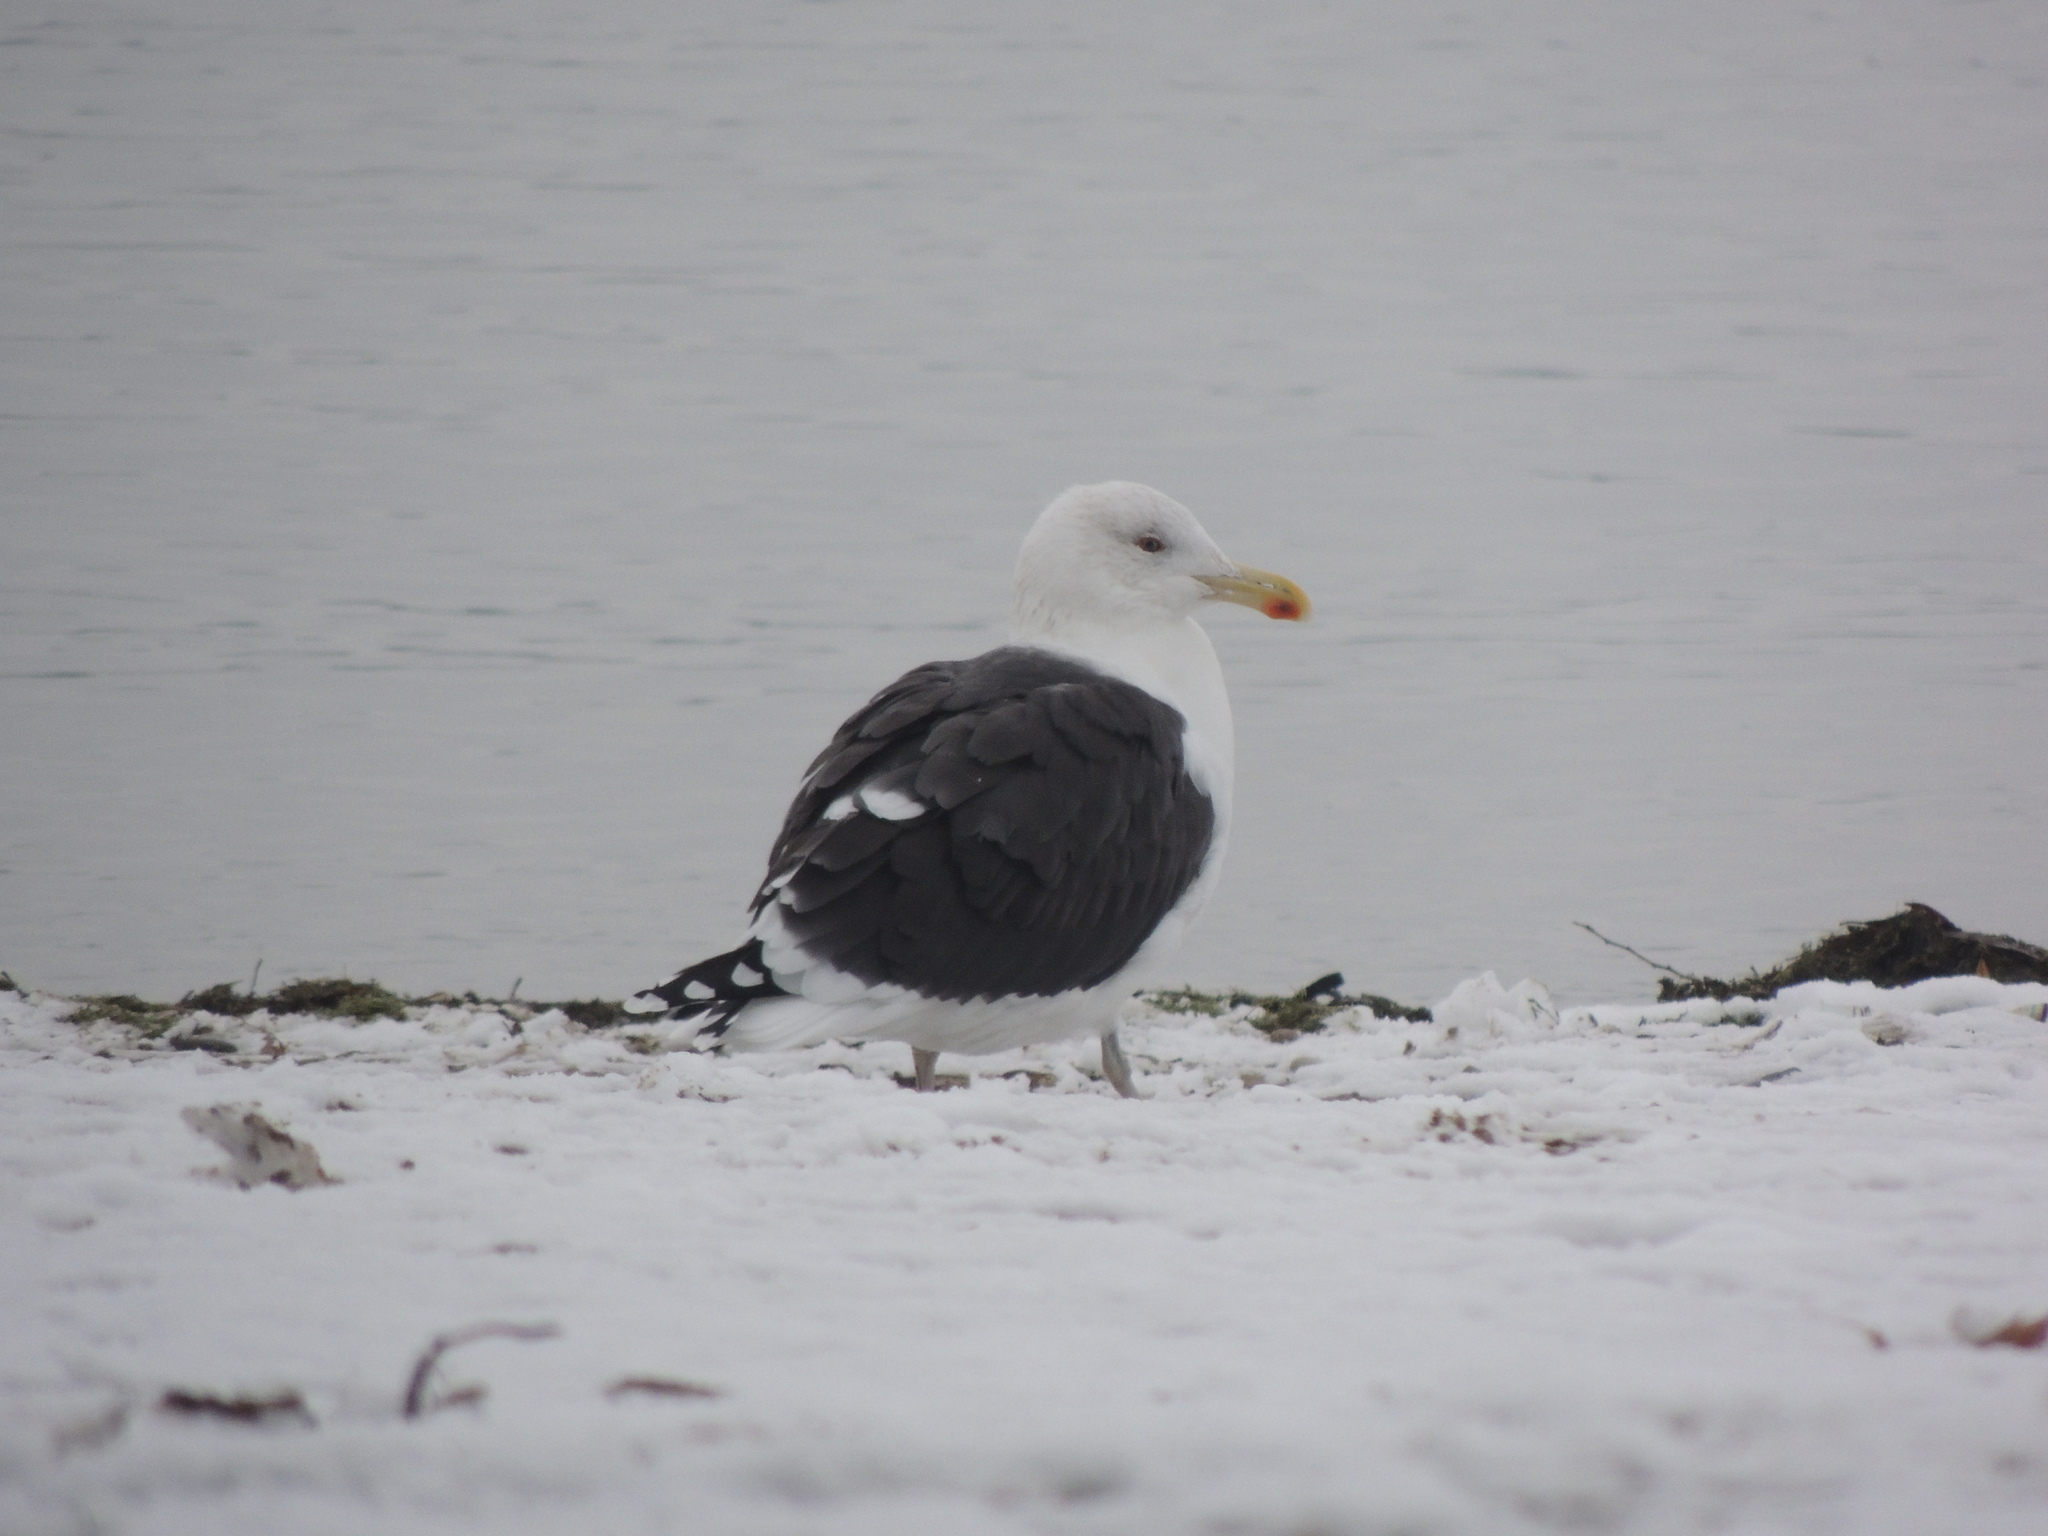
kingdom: Animalia
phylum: Chordata
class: Aves
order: Charadriiformes
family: Laridae
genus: Larus
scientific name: Larus marinus
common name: Great black-backed gull
